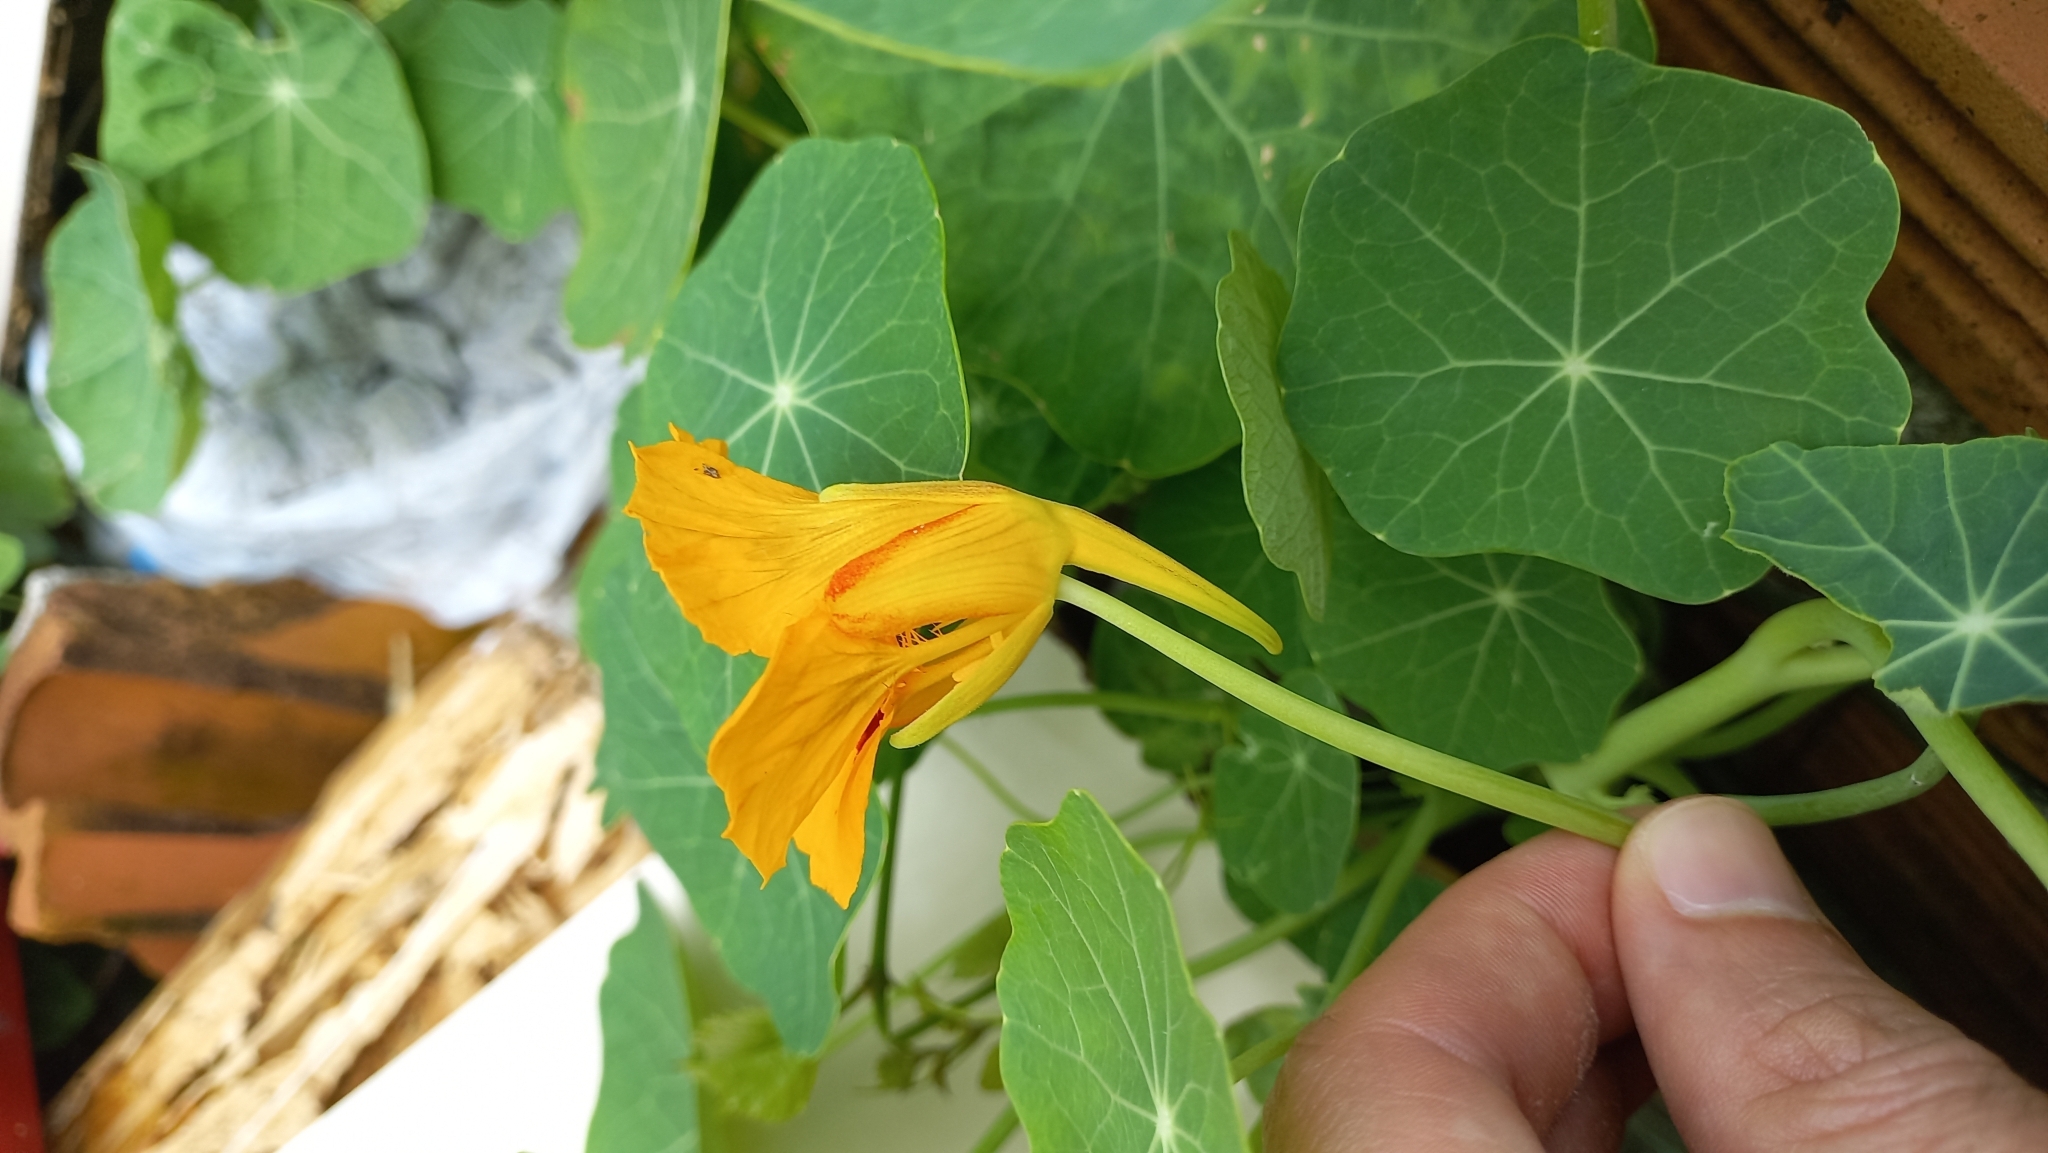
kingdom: Plantae
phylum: Tracheophyta
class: Magnoliopsida
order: Brassicales
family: Tropaeolaceae
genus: Tropaeolum
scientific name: Tropaeolum majus
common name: Nasturtium
